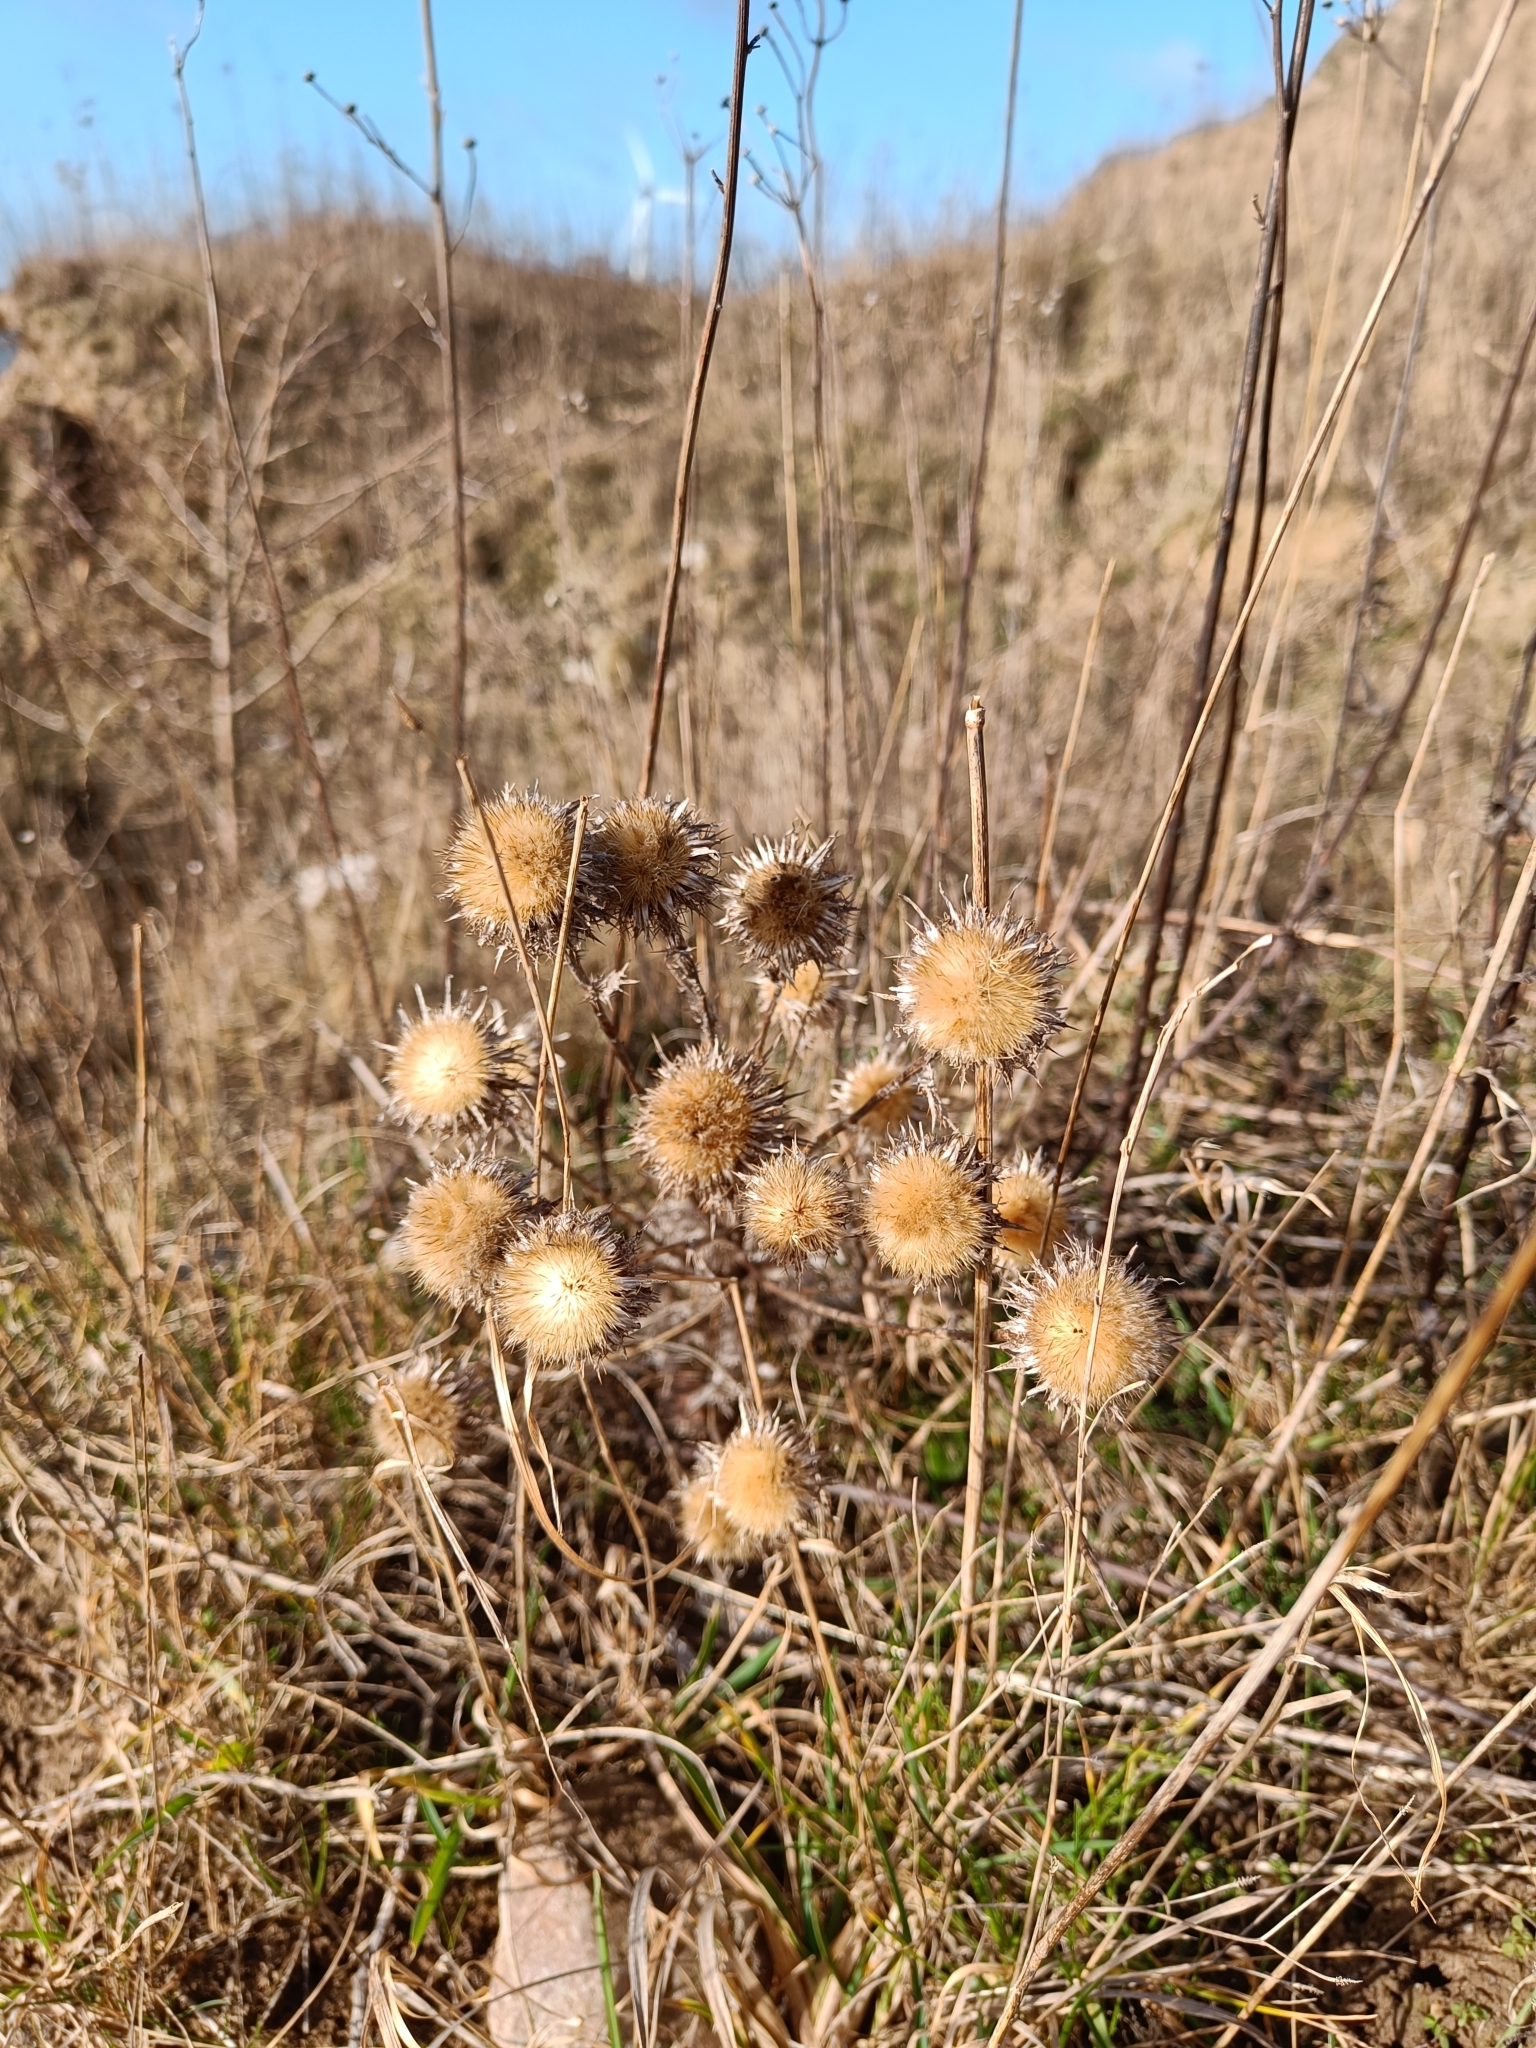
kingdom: Plantae
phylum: Tracheophyta
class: Magnoliopsida
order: Asterales
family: Asteraceae
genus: Carlina
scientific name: Carlina vulgaris
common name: Carline thistle
